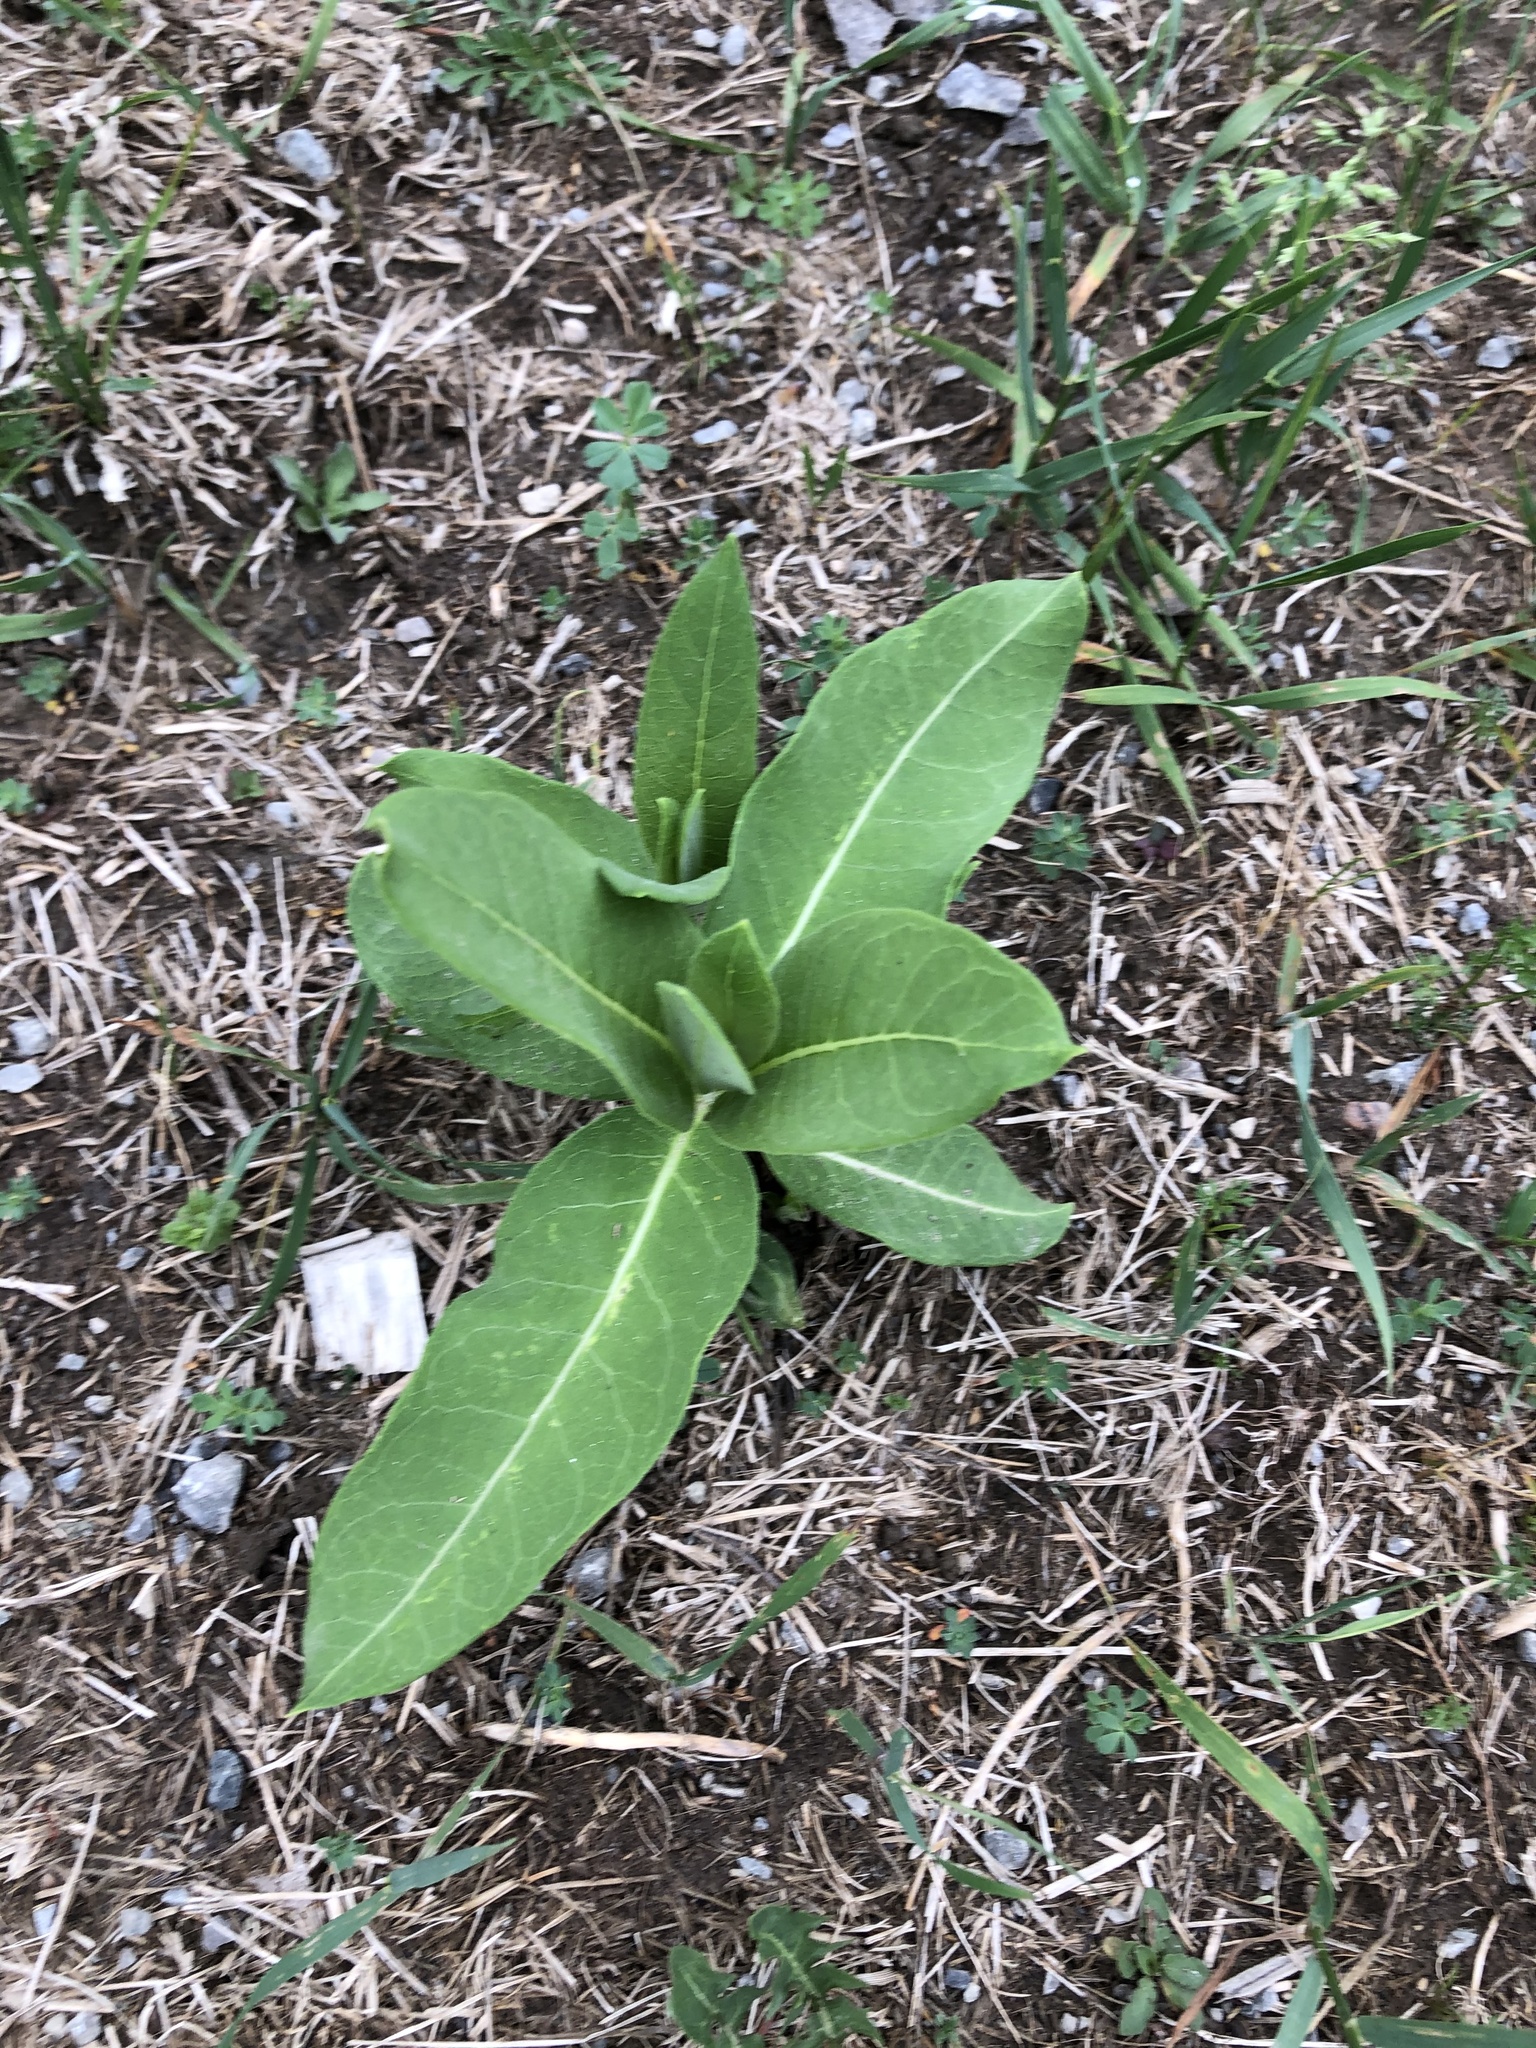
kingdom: Plantae
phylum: Tracheophyta
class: Magnoliopsida
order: Gentianales
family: Apocynaceae
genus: Asclepias
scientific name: Asclepias syriaca
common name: Common milkweed
